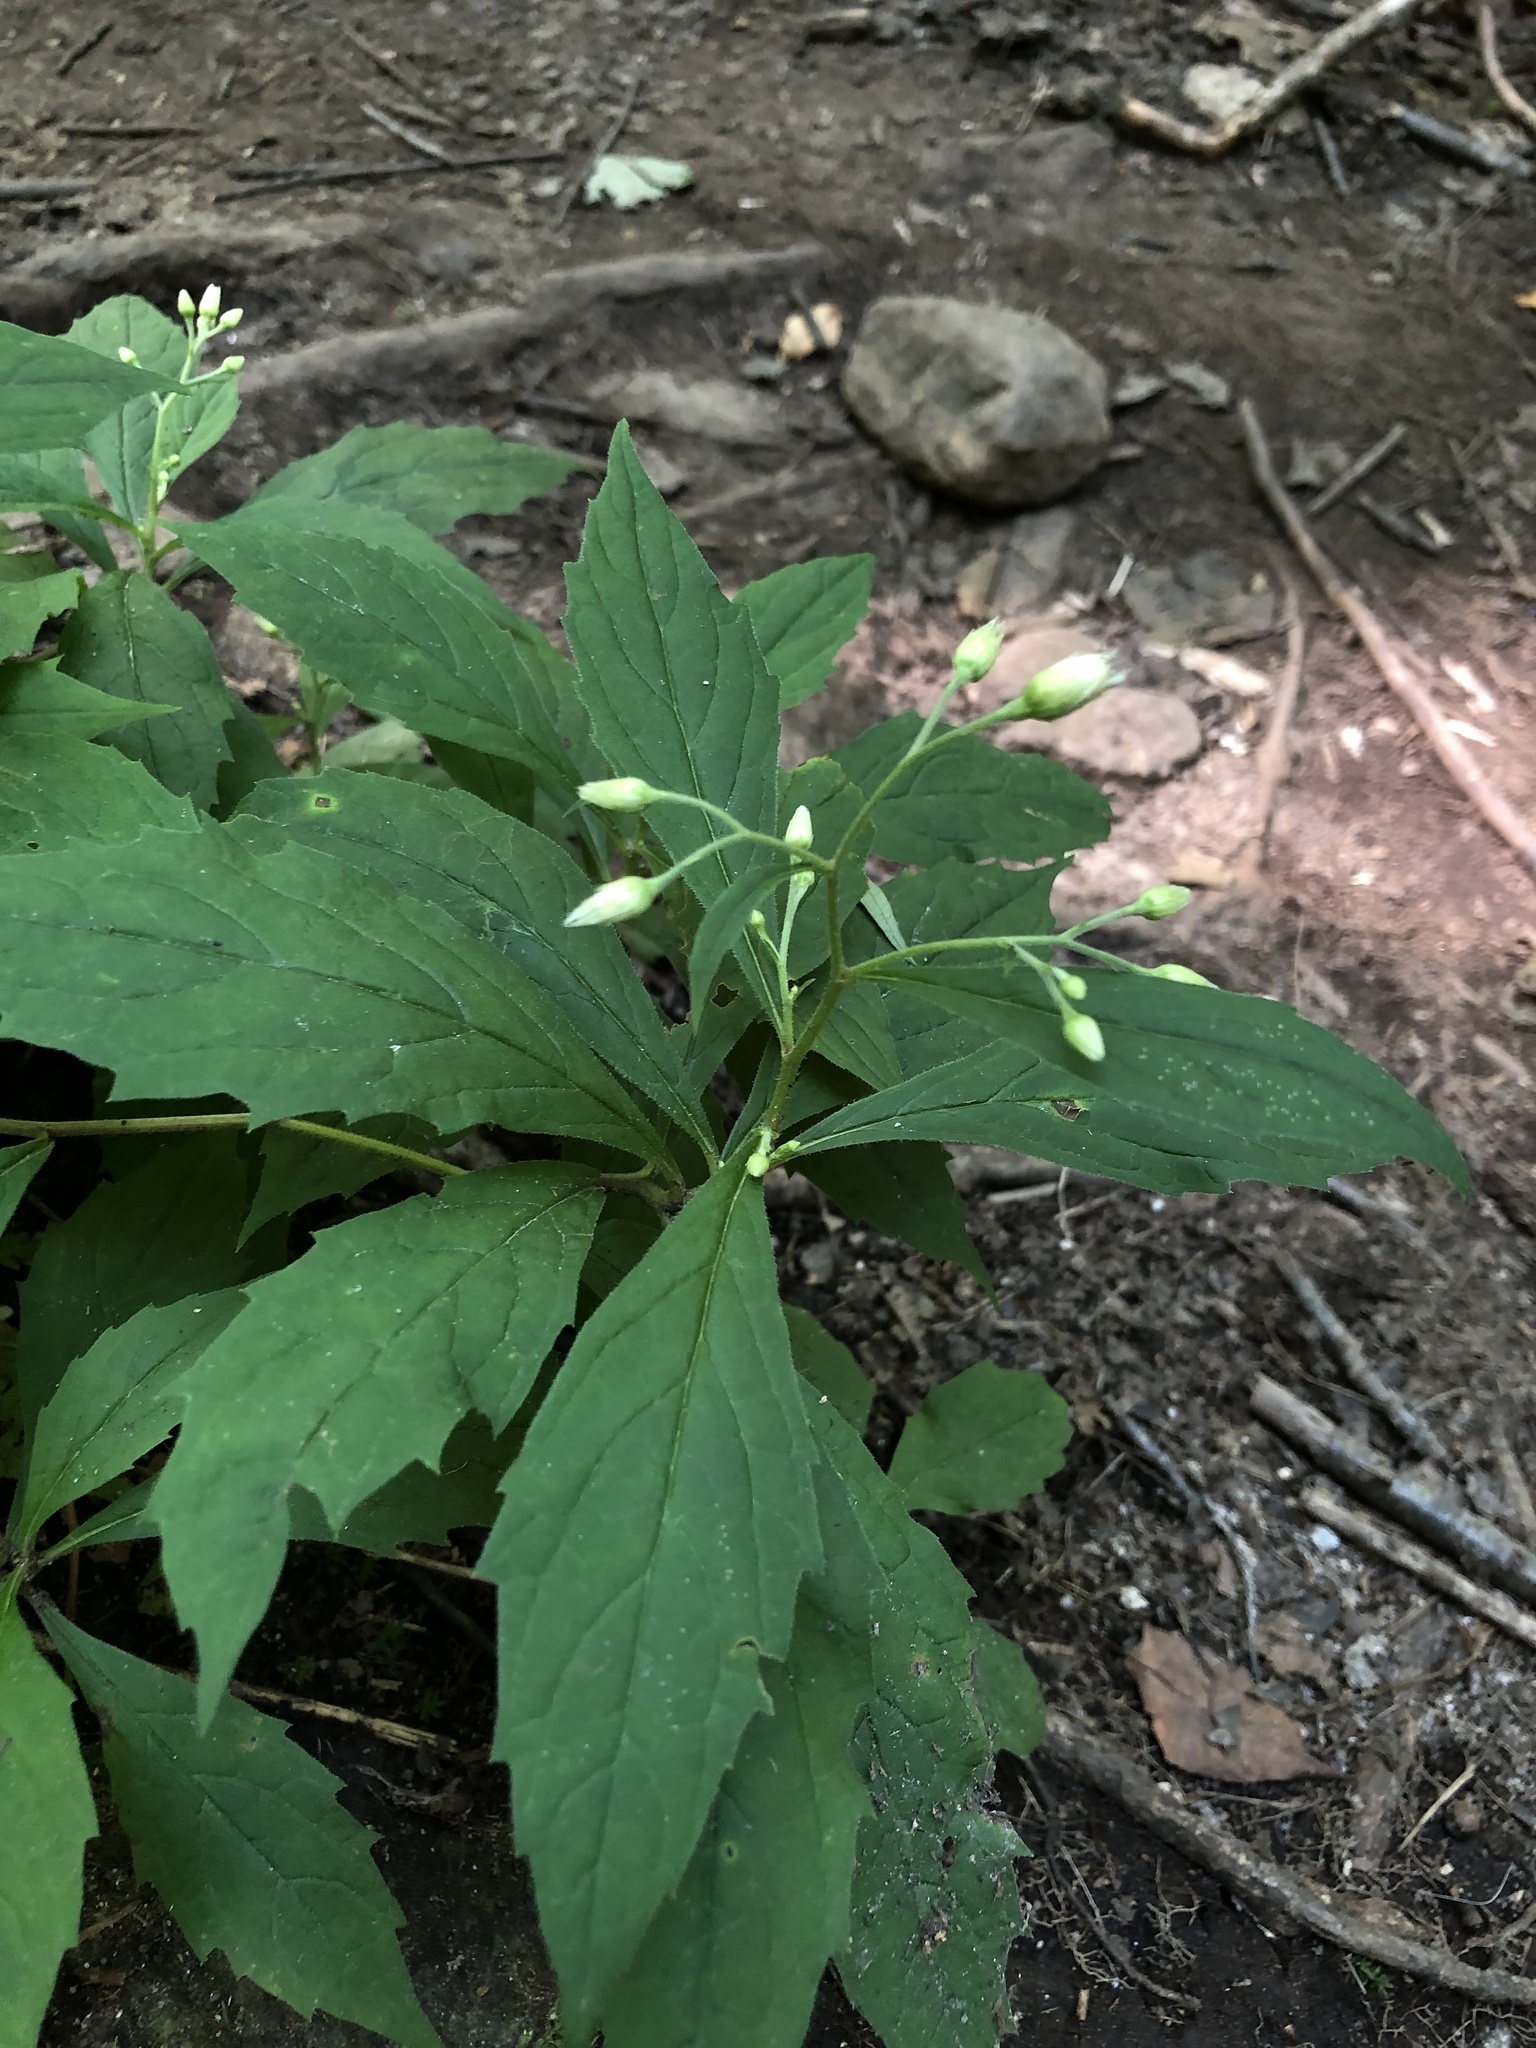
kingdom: Plantae
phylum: Tracheophyta
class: Magnoliopsida
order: Asterales
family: Asteraceae
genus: Oclemena
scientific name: Oclemena acuminata
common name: Mountain aster
